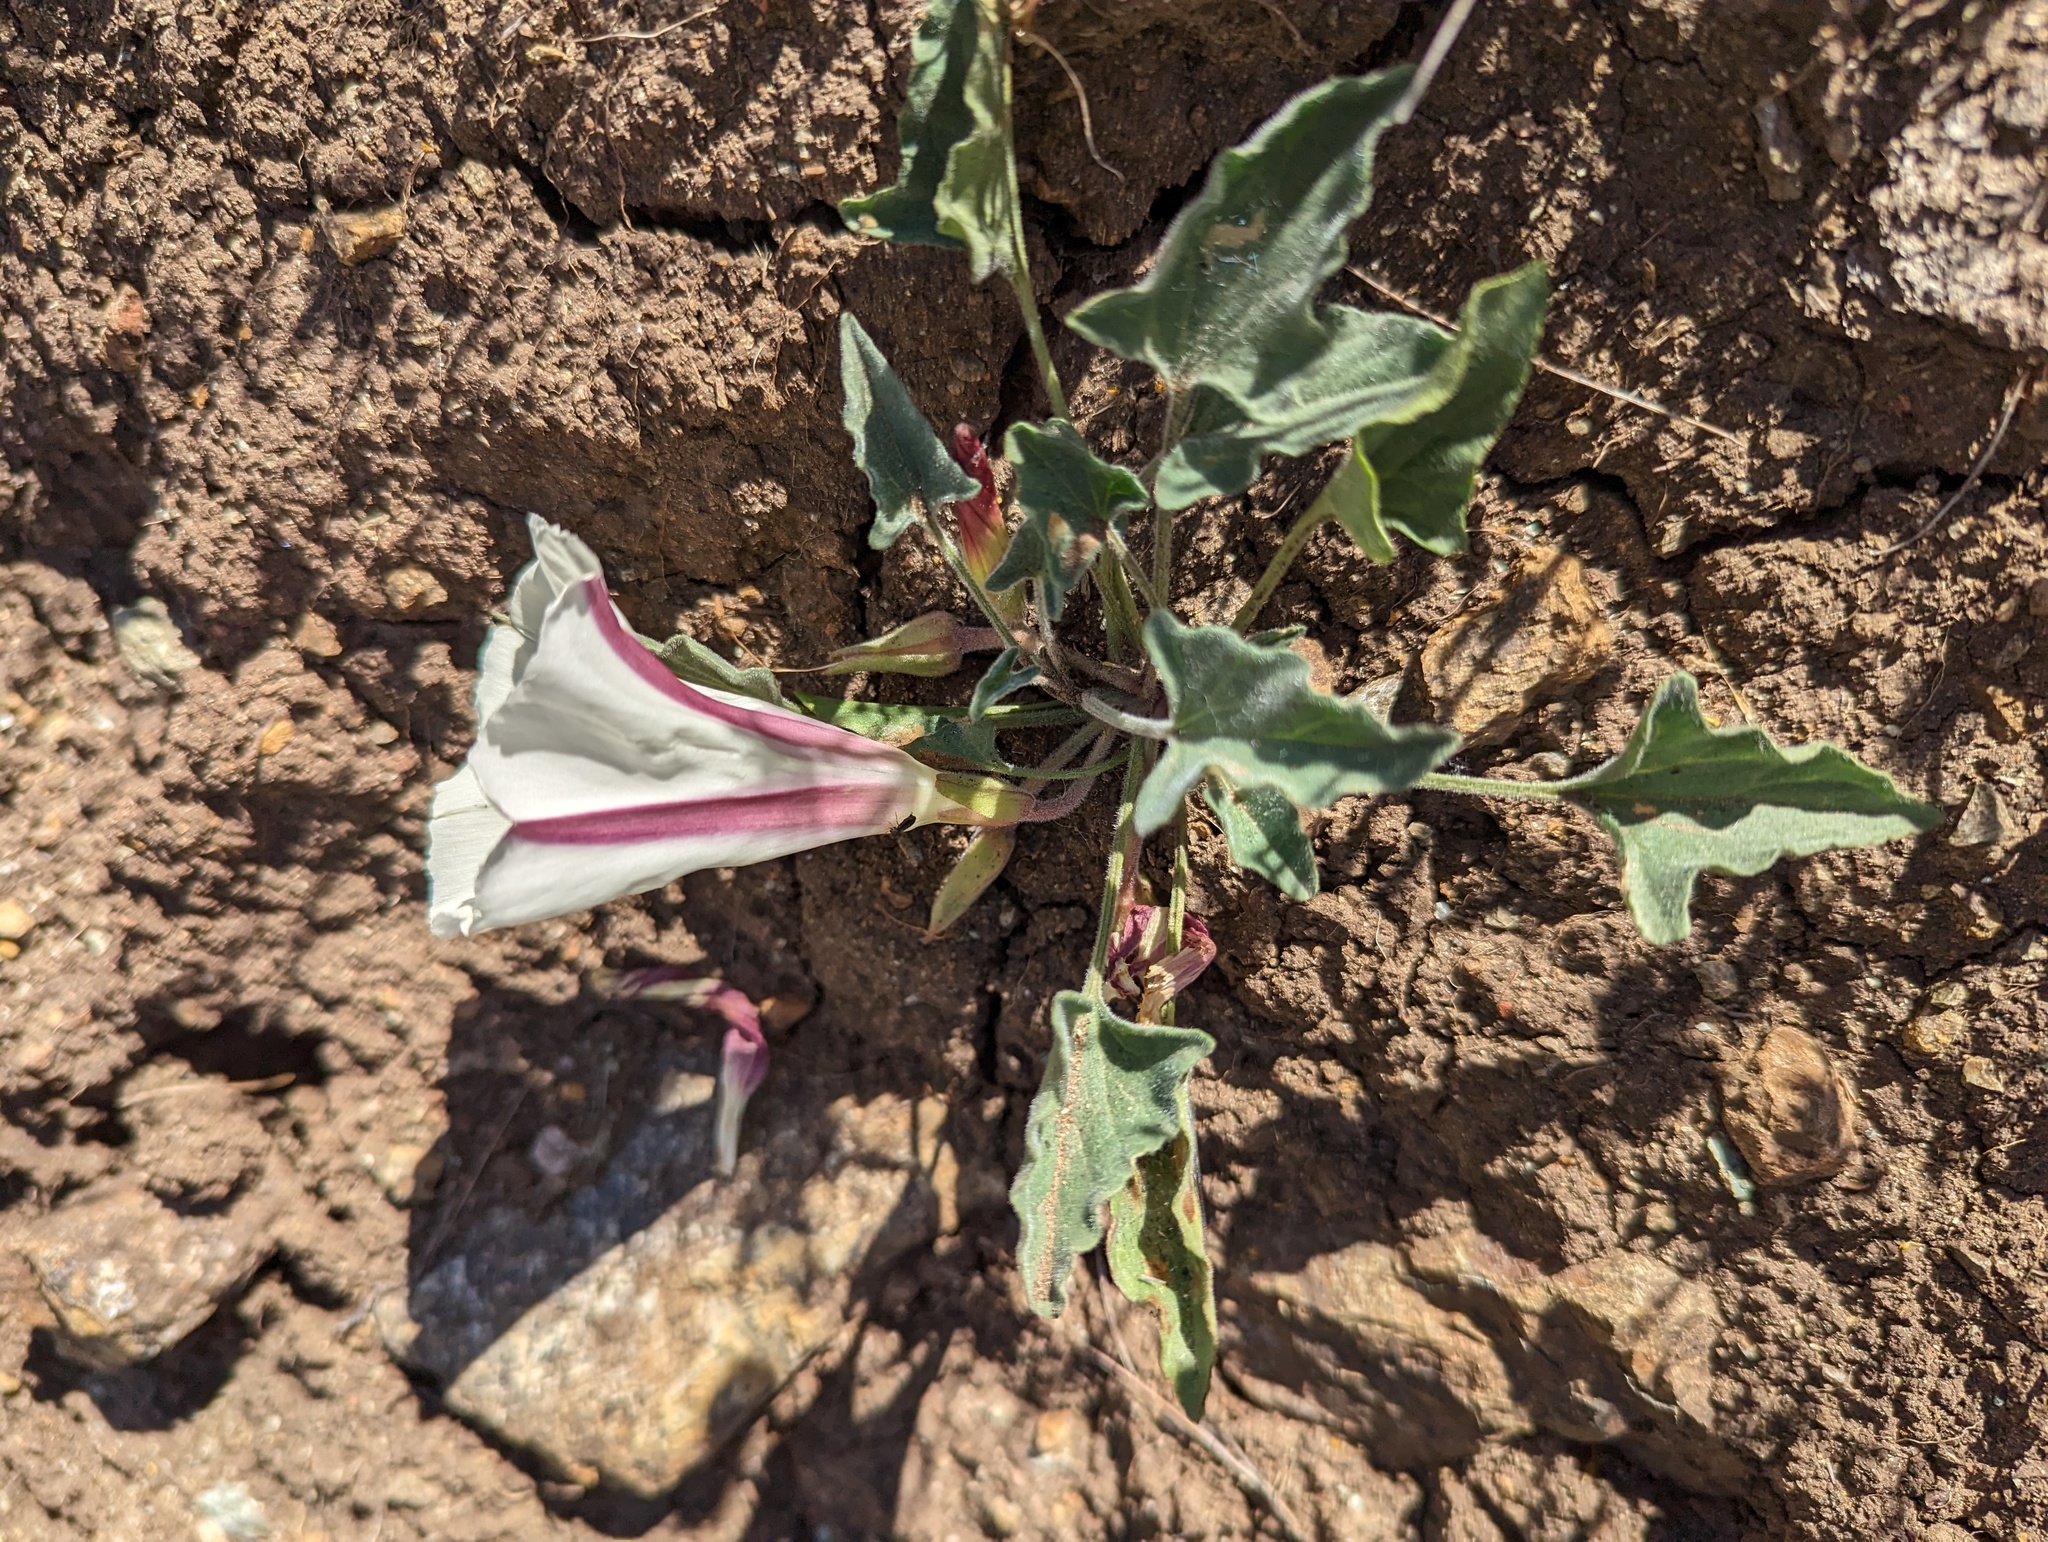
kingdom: Plantae
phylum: Tracheophyta
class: Magnoliopsida
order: Solanales
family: Convolvulaceae
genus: Calystegia
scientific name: Calystegia collina
